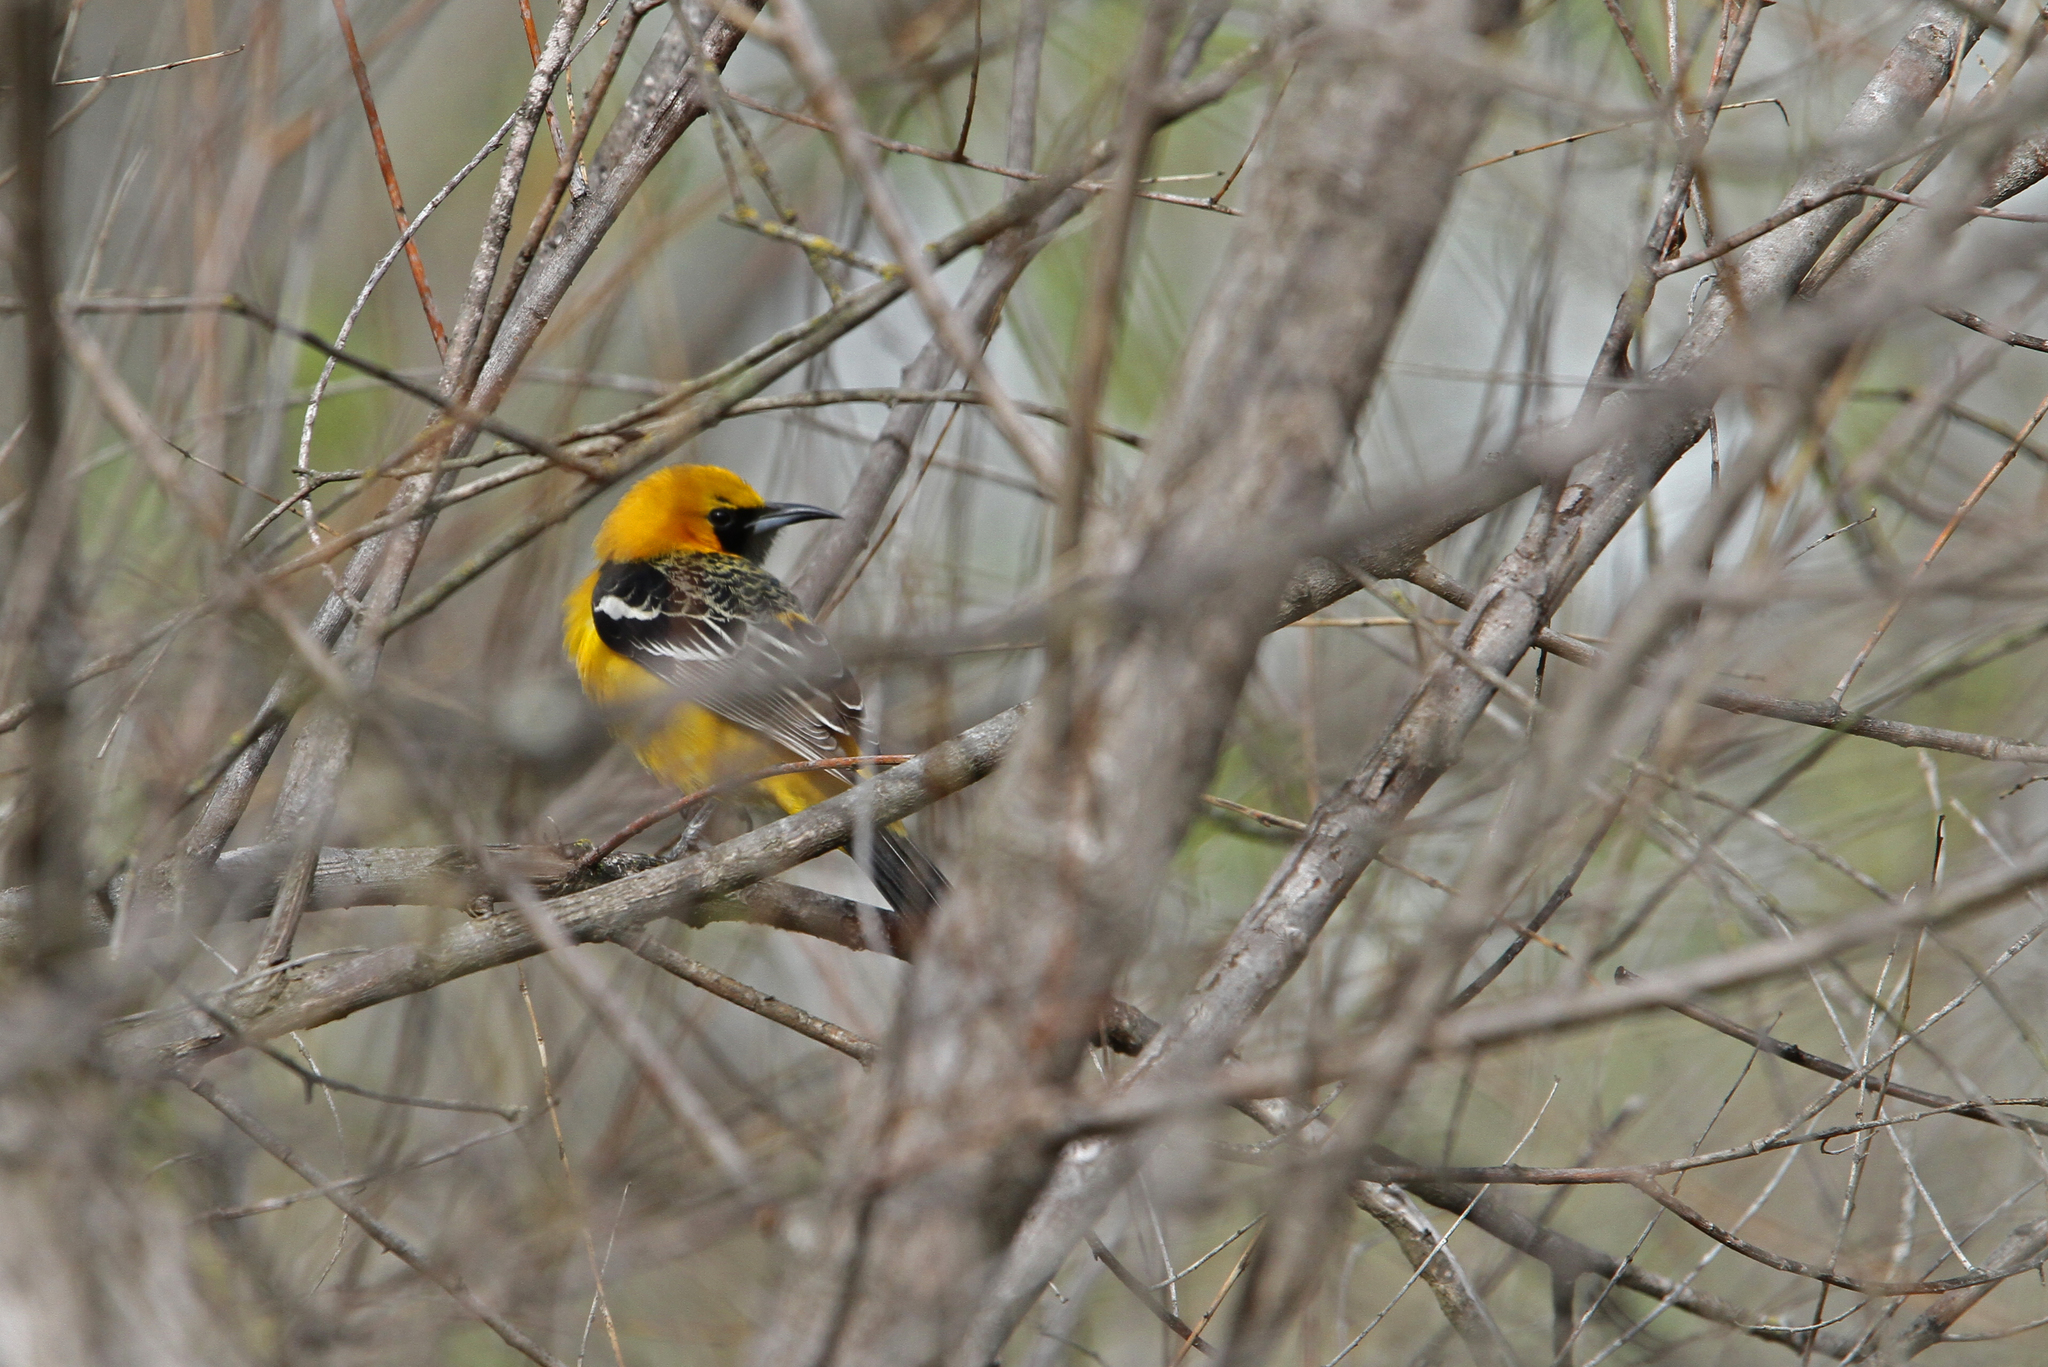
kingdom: Animalia
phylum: Chordata
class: Aves
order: Passeriformes
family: Icteridae
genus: Icterus
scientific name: Icterus cucullatus
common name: Hooded oriole
